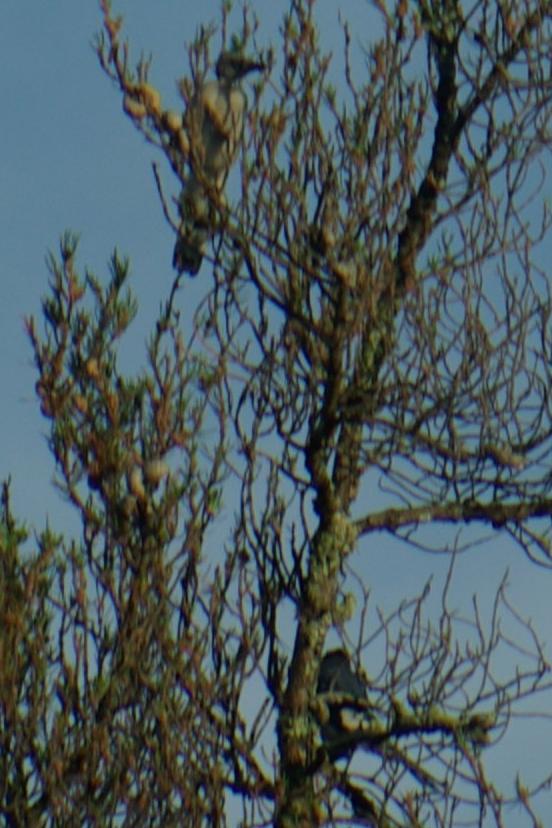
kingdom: Animalia
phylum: Chordata
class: Aves
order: Passeriformes
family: Corvidae
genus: Cyanocitta
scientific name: Cyanocitta cristata
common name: Blue jay
